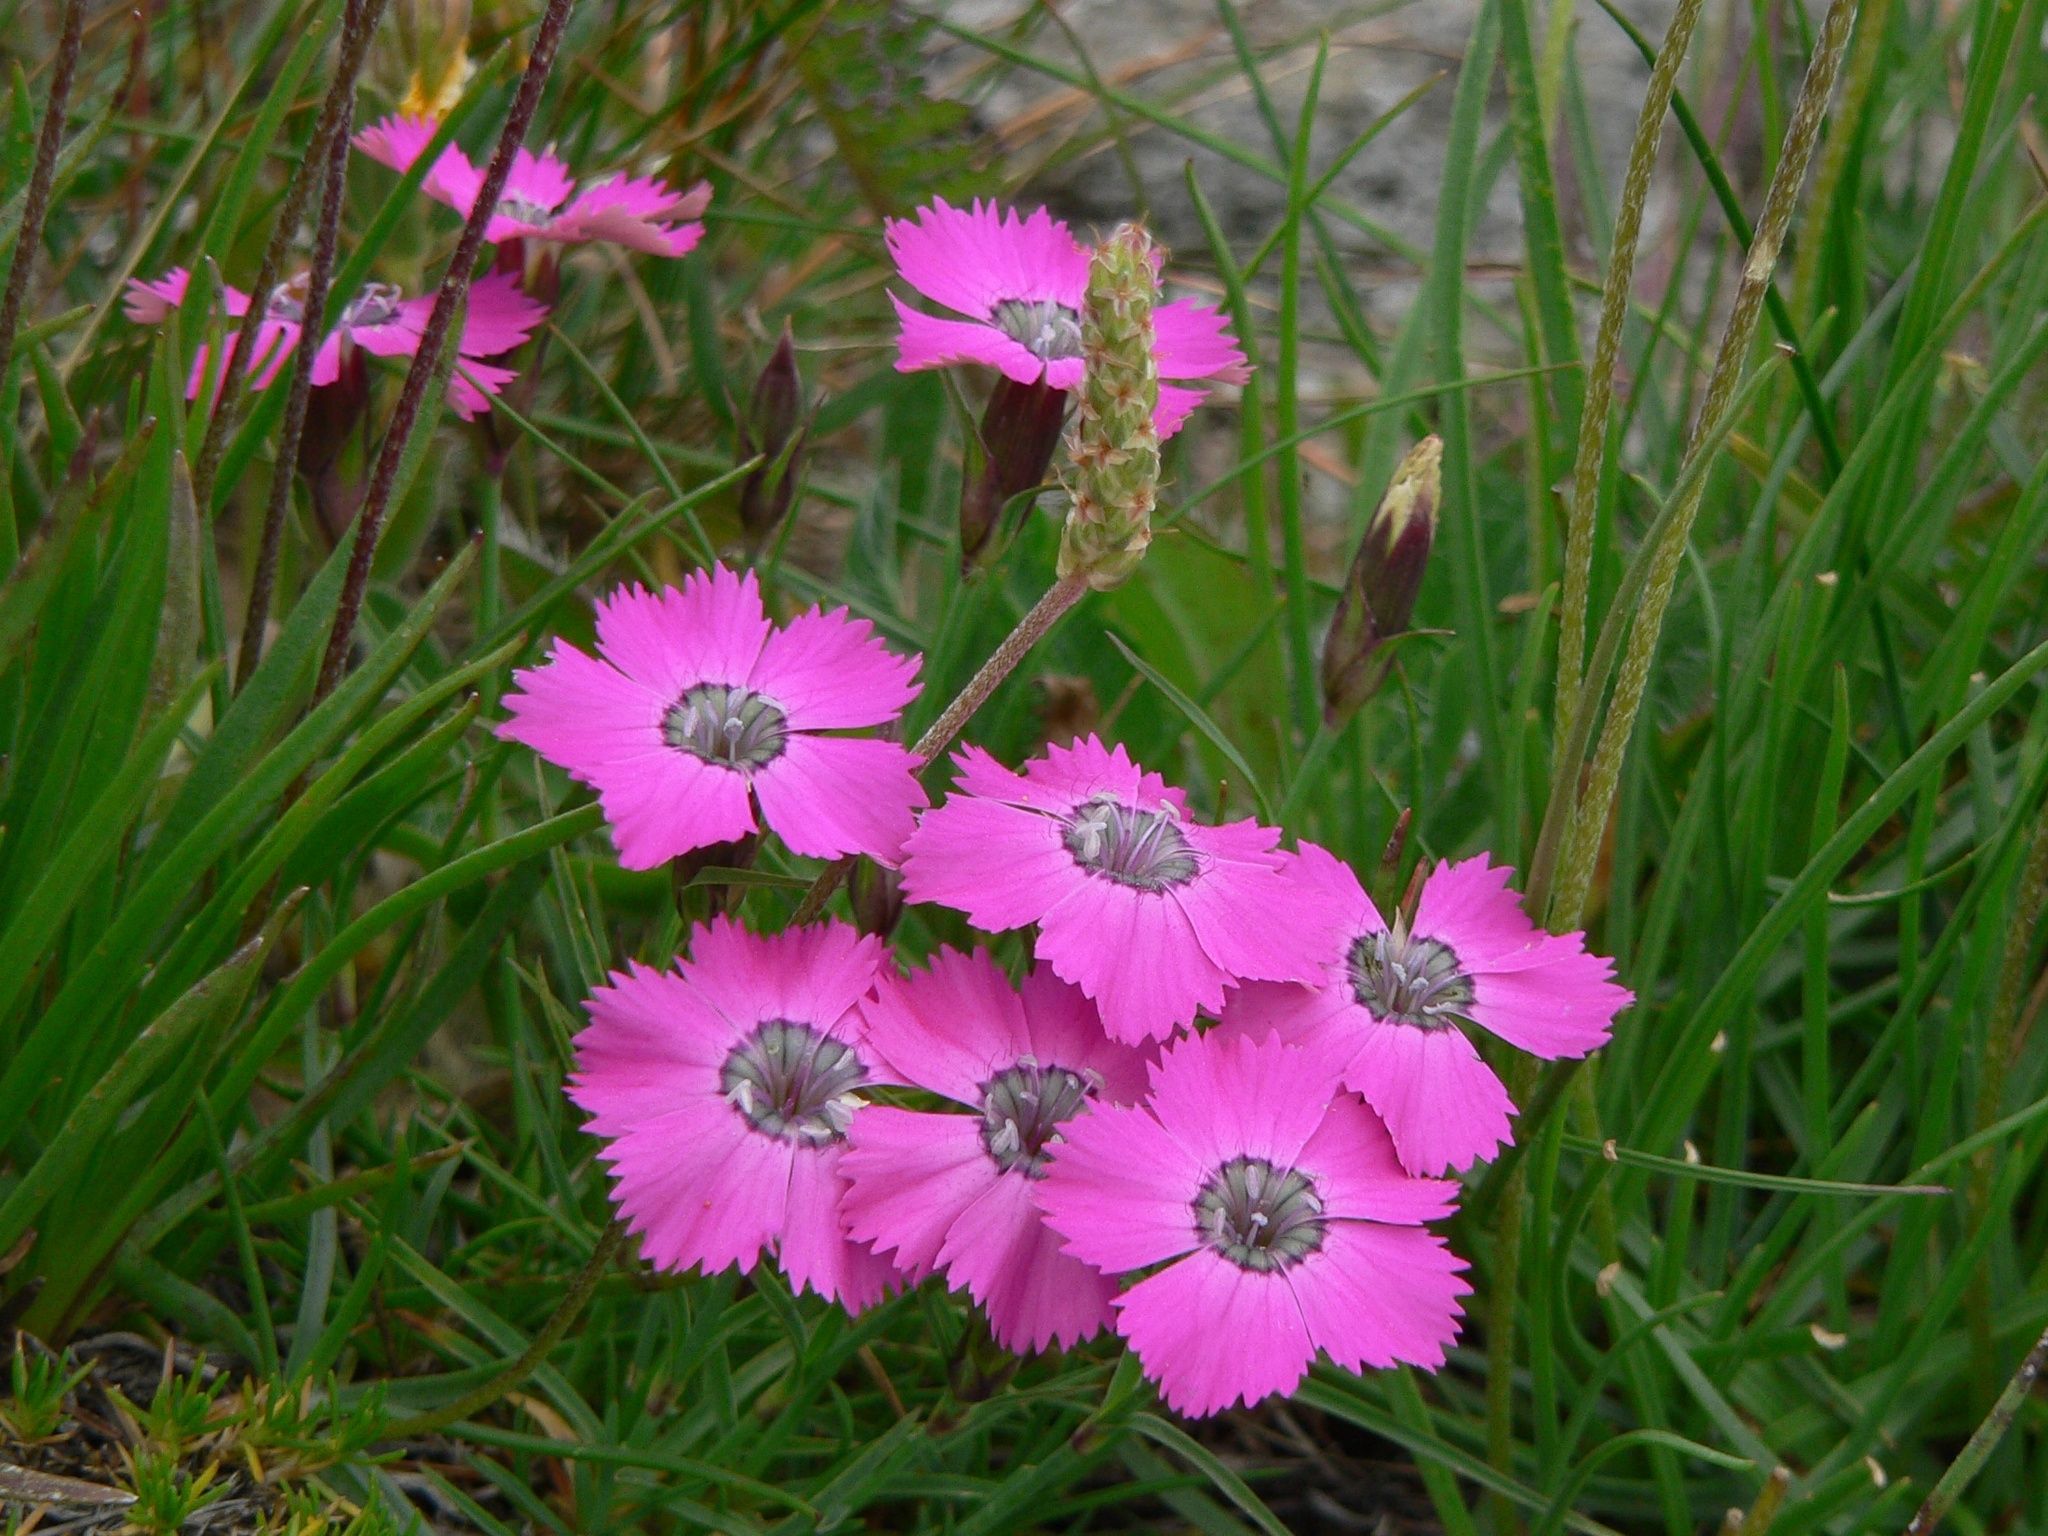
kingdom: Plantae
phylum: Tracheophyta
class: Magnoliopsida
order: Caryophyllales
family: Caryophyllaceae
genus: Dianthus
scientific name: Dianthus pavonius
